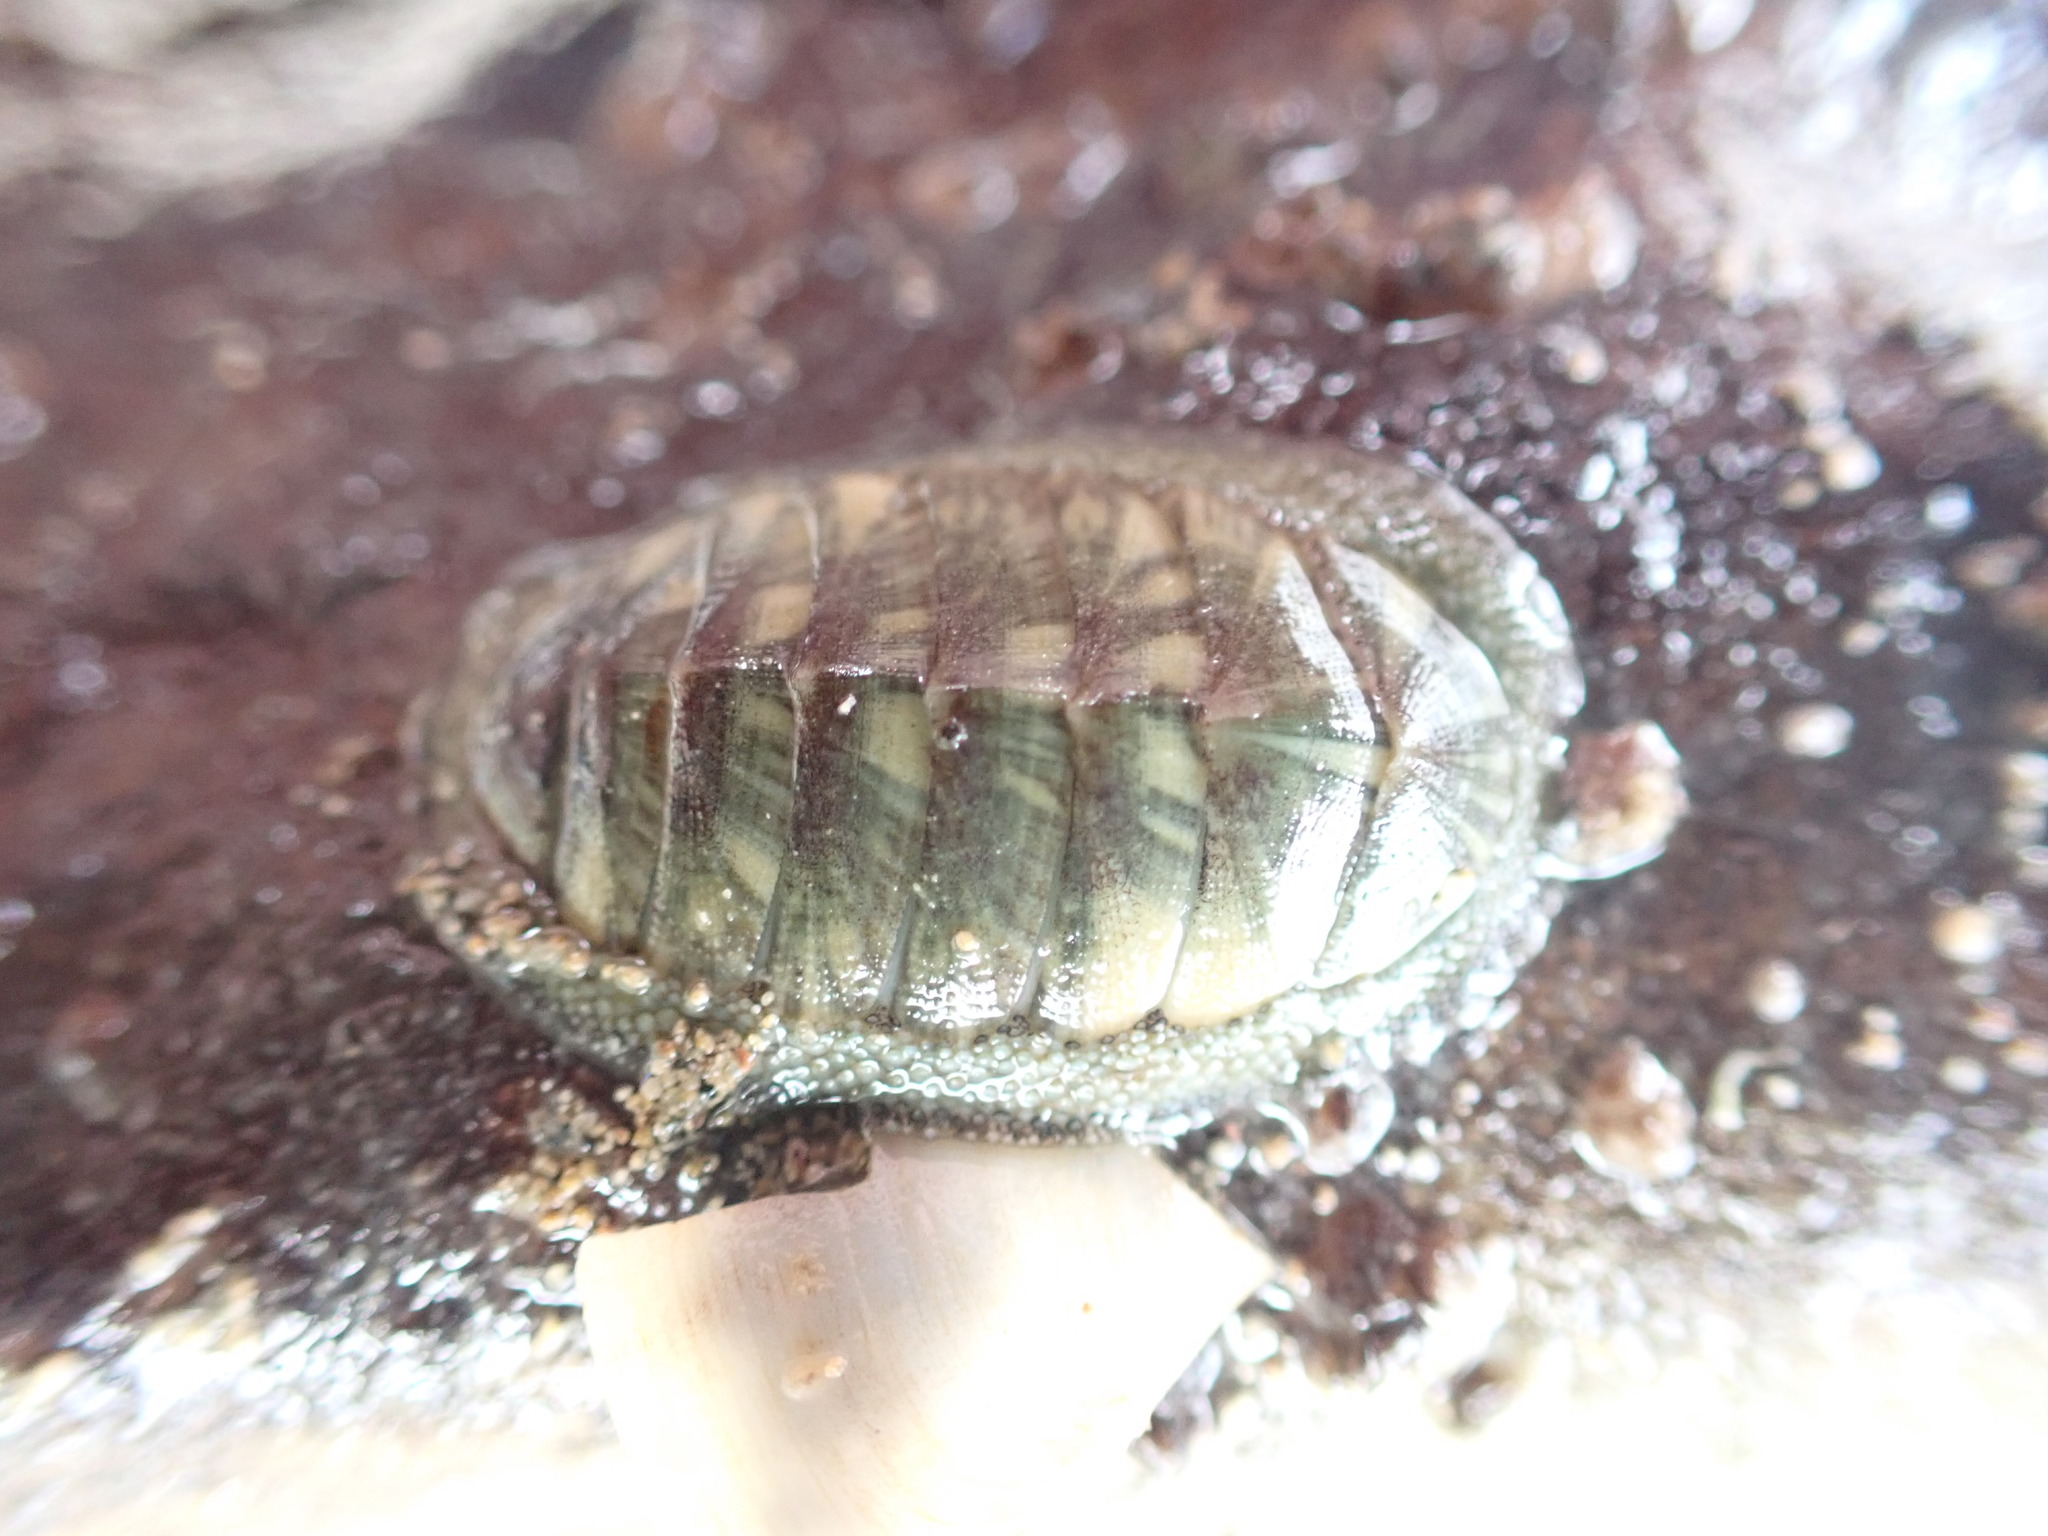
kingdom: Animalia
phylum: Mollusca
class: Polyplacophora
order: Chitonida
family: Chitonidae
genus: Rhyssoplax
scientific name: Rhyssoplax aerea
